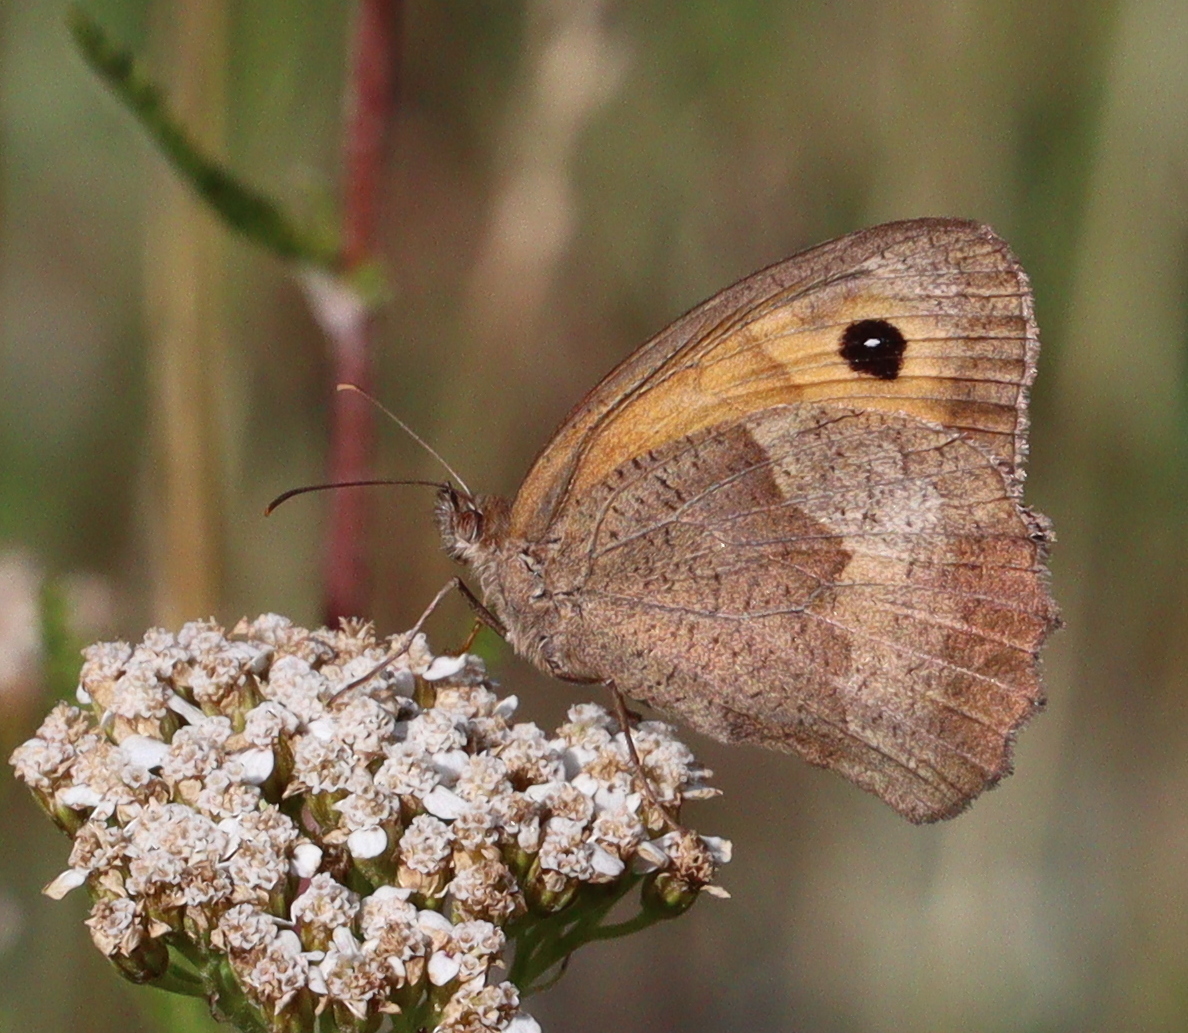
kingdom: Animalia
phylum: Arthropoda
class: Insecta
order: Lepidoptera
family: Nymphalidae
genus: Maniola
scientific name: Maniola jurtina
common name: Meadow brown
